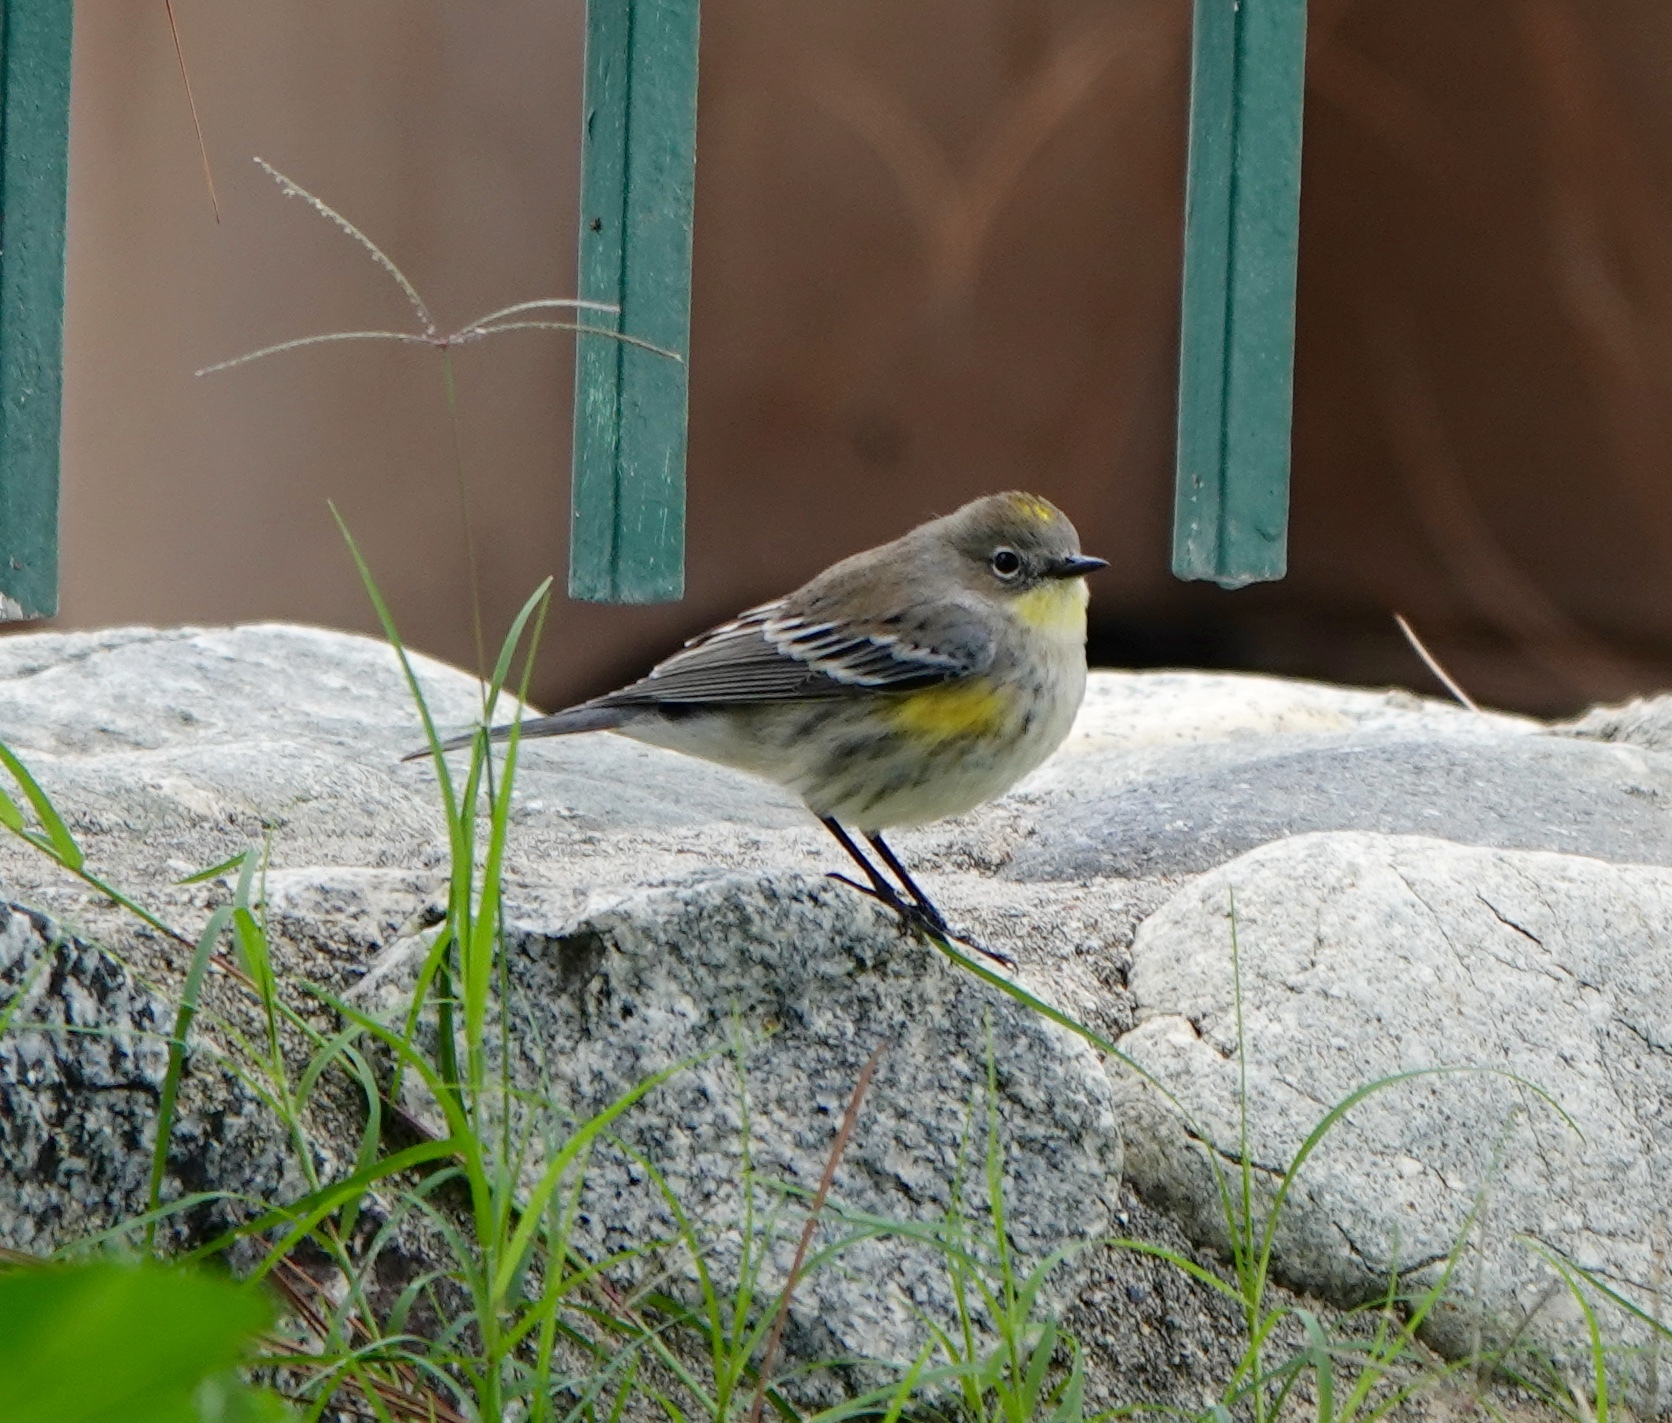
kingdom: Animalia
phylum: Chordata
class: Aves
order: Passeriformes
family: Parulidae
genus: Setophaga
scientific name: Setophaga auduboni
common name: Audubon's warbler
